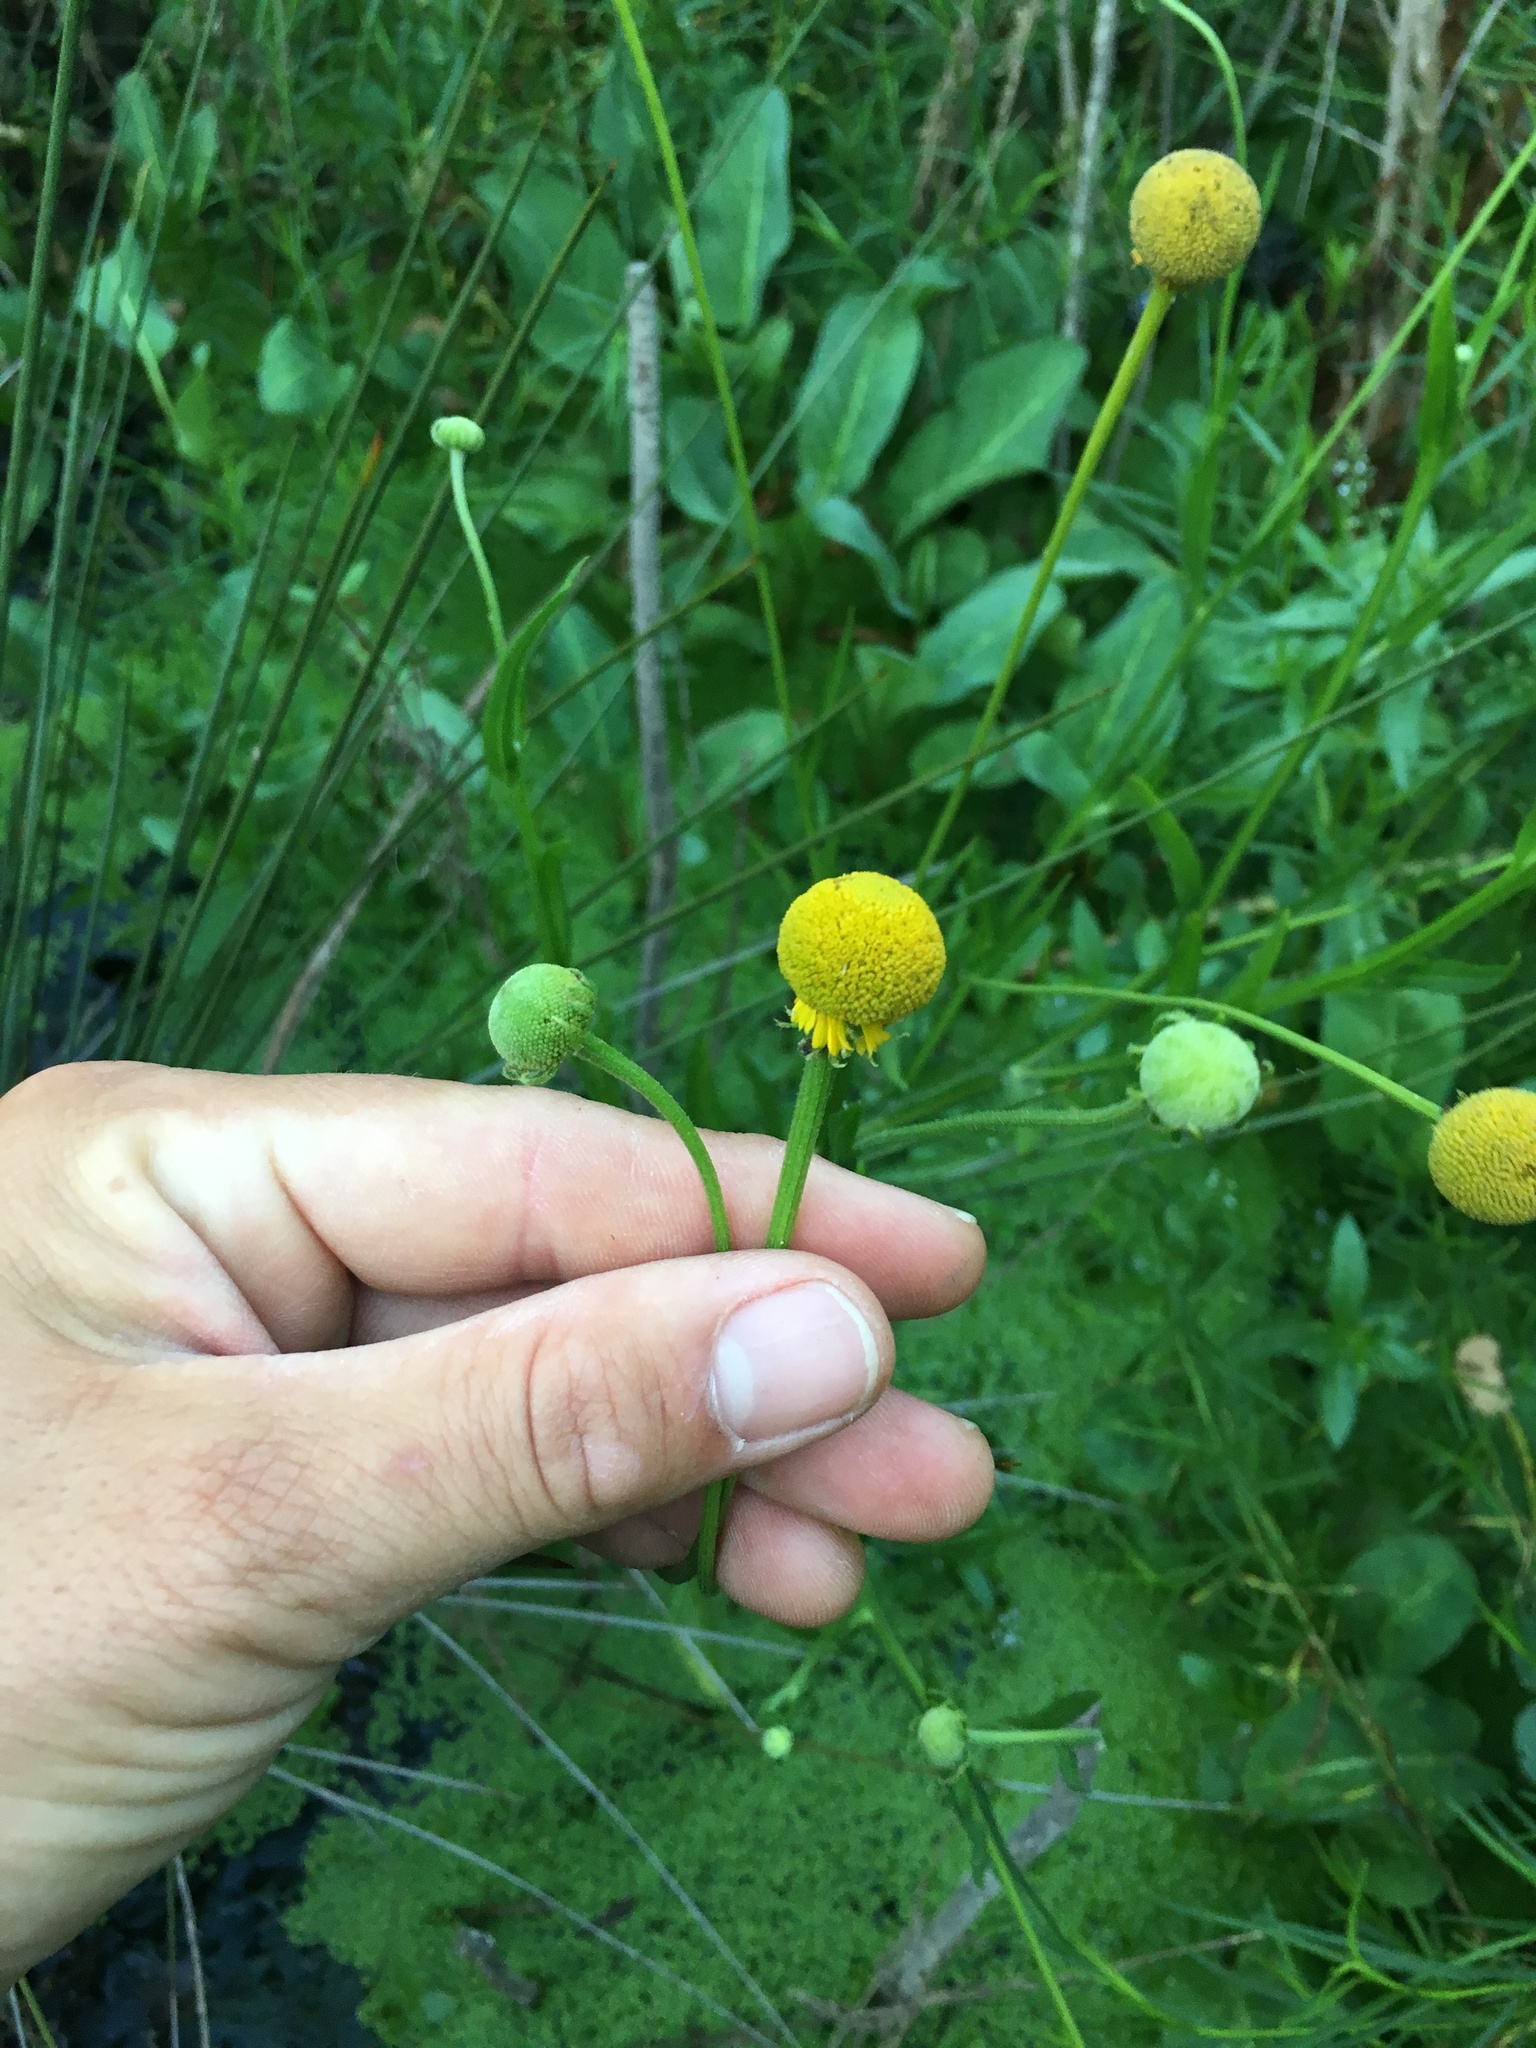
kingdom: Plantae
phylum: Tracheophyta
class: Magnoliopsida
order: Asterales
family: Asteraceae
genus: Helenium
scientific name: Helenium puberulum
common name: Sneezewort
